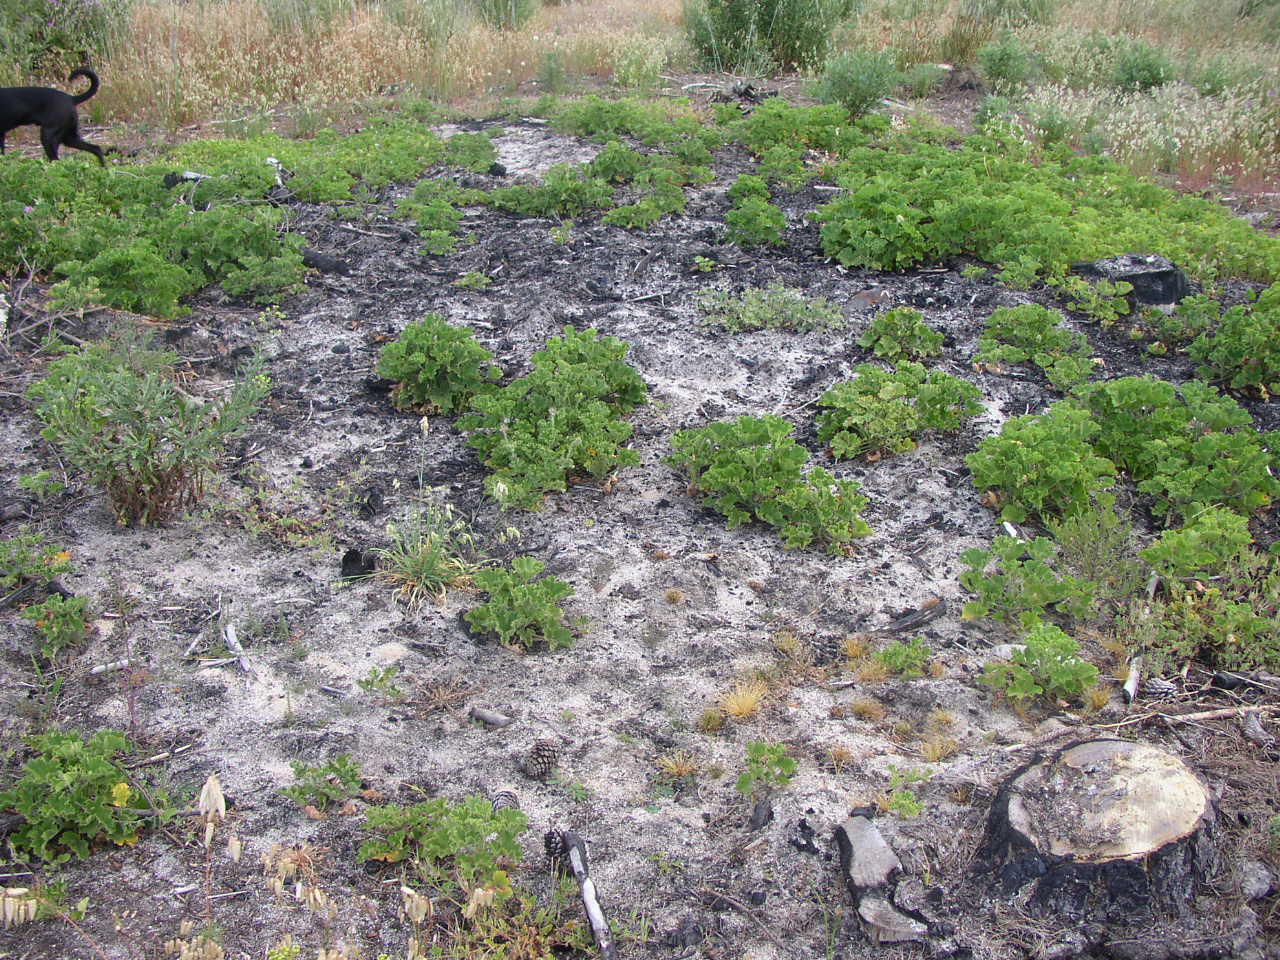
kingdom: Plantae
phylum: Tracheophyta
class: Magnoliopsida
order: Geraniales
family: Geraniaceae
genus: Pelargonium
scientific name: Pelargonium cucullatum
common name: Tree pelargonium
